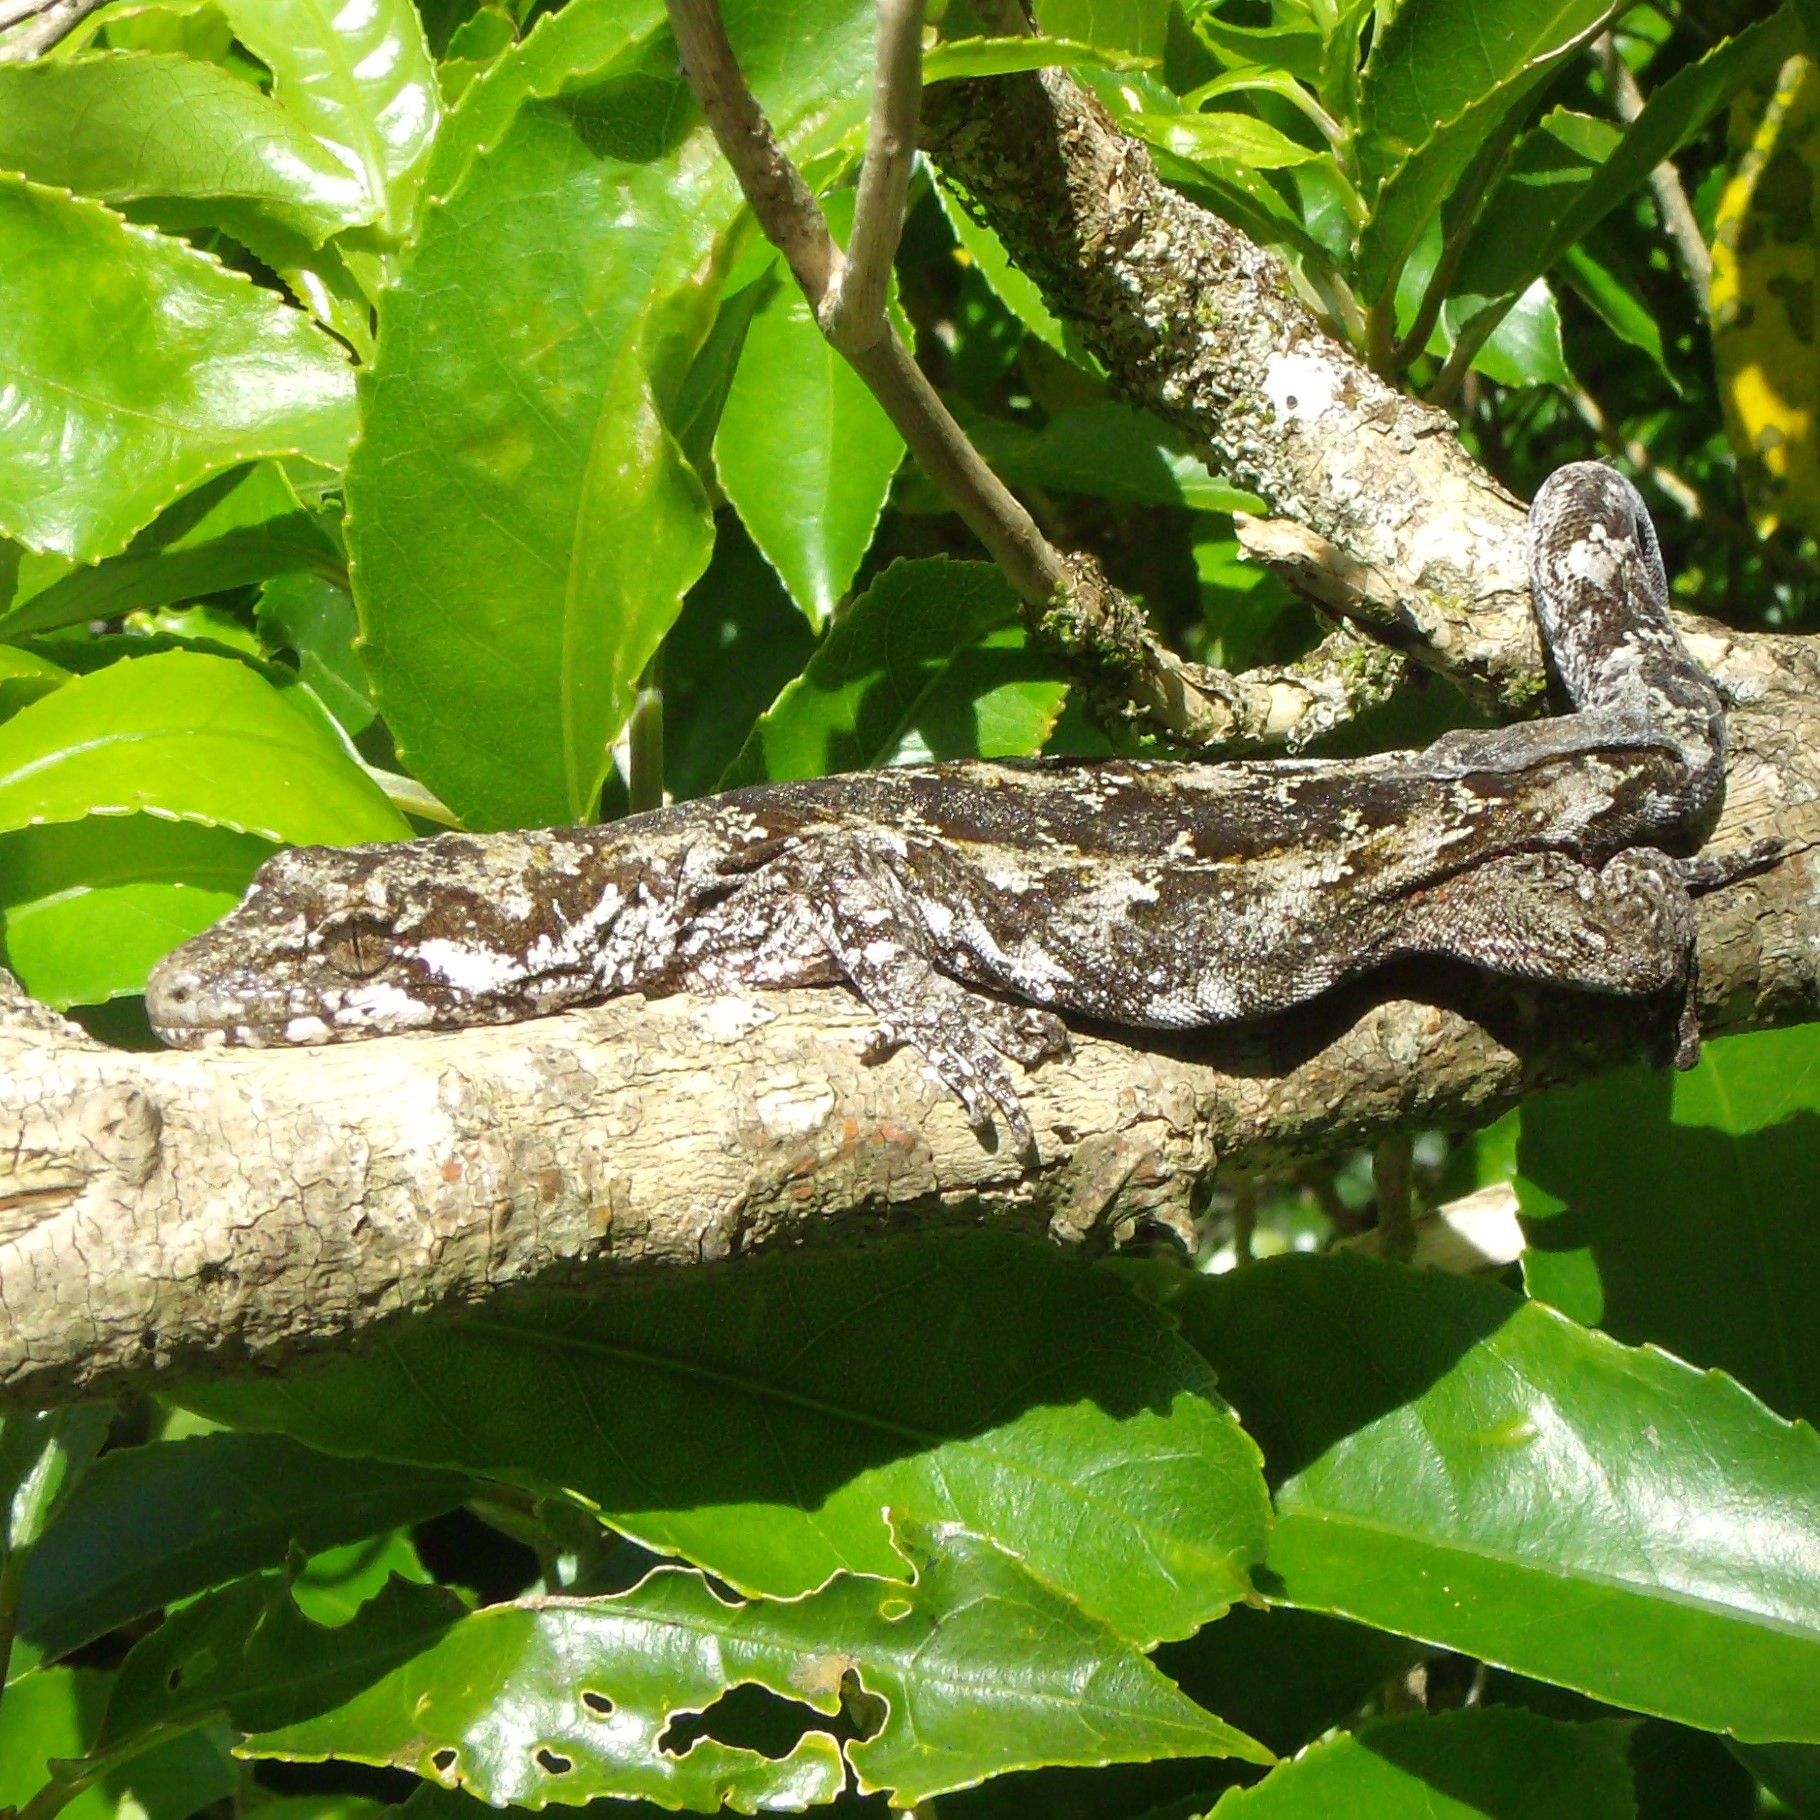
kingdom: Animalia
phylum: Chordata
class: Squamata
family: Diplodactylidae
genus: Mokopirirakau
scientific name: Mokopirirakau
